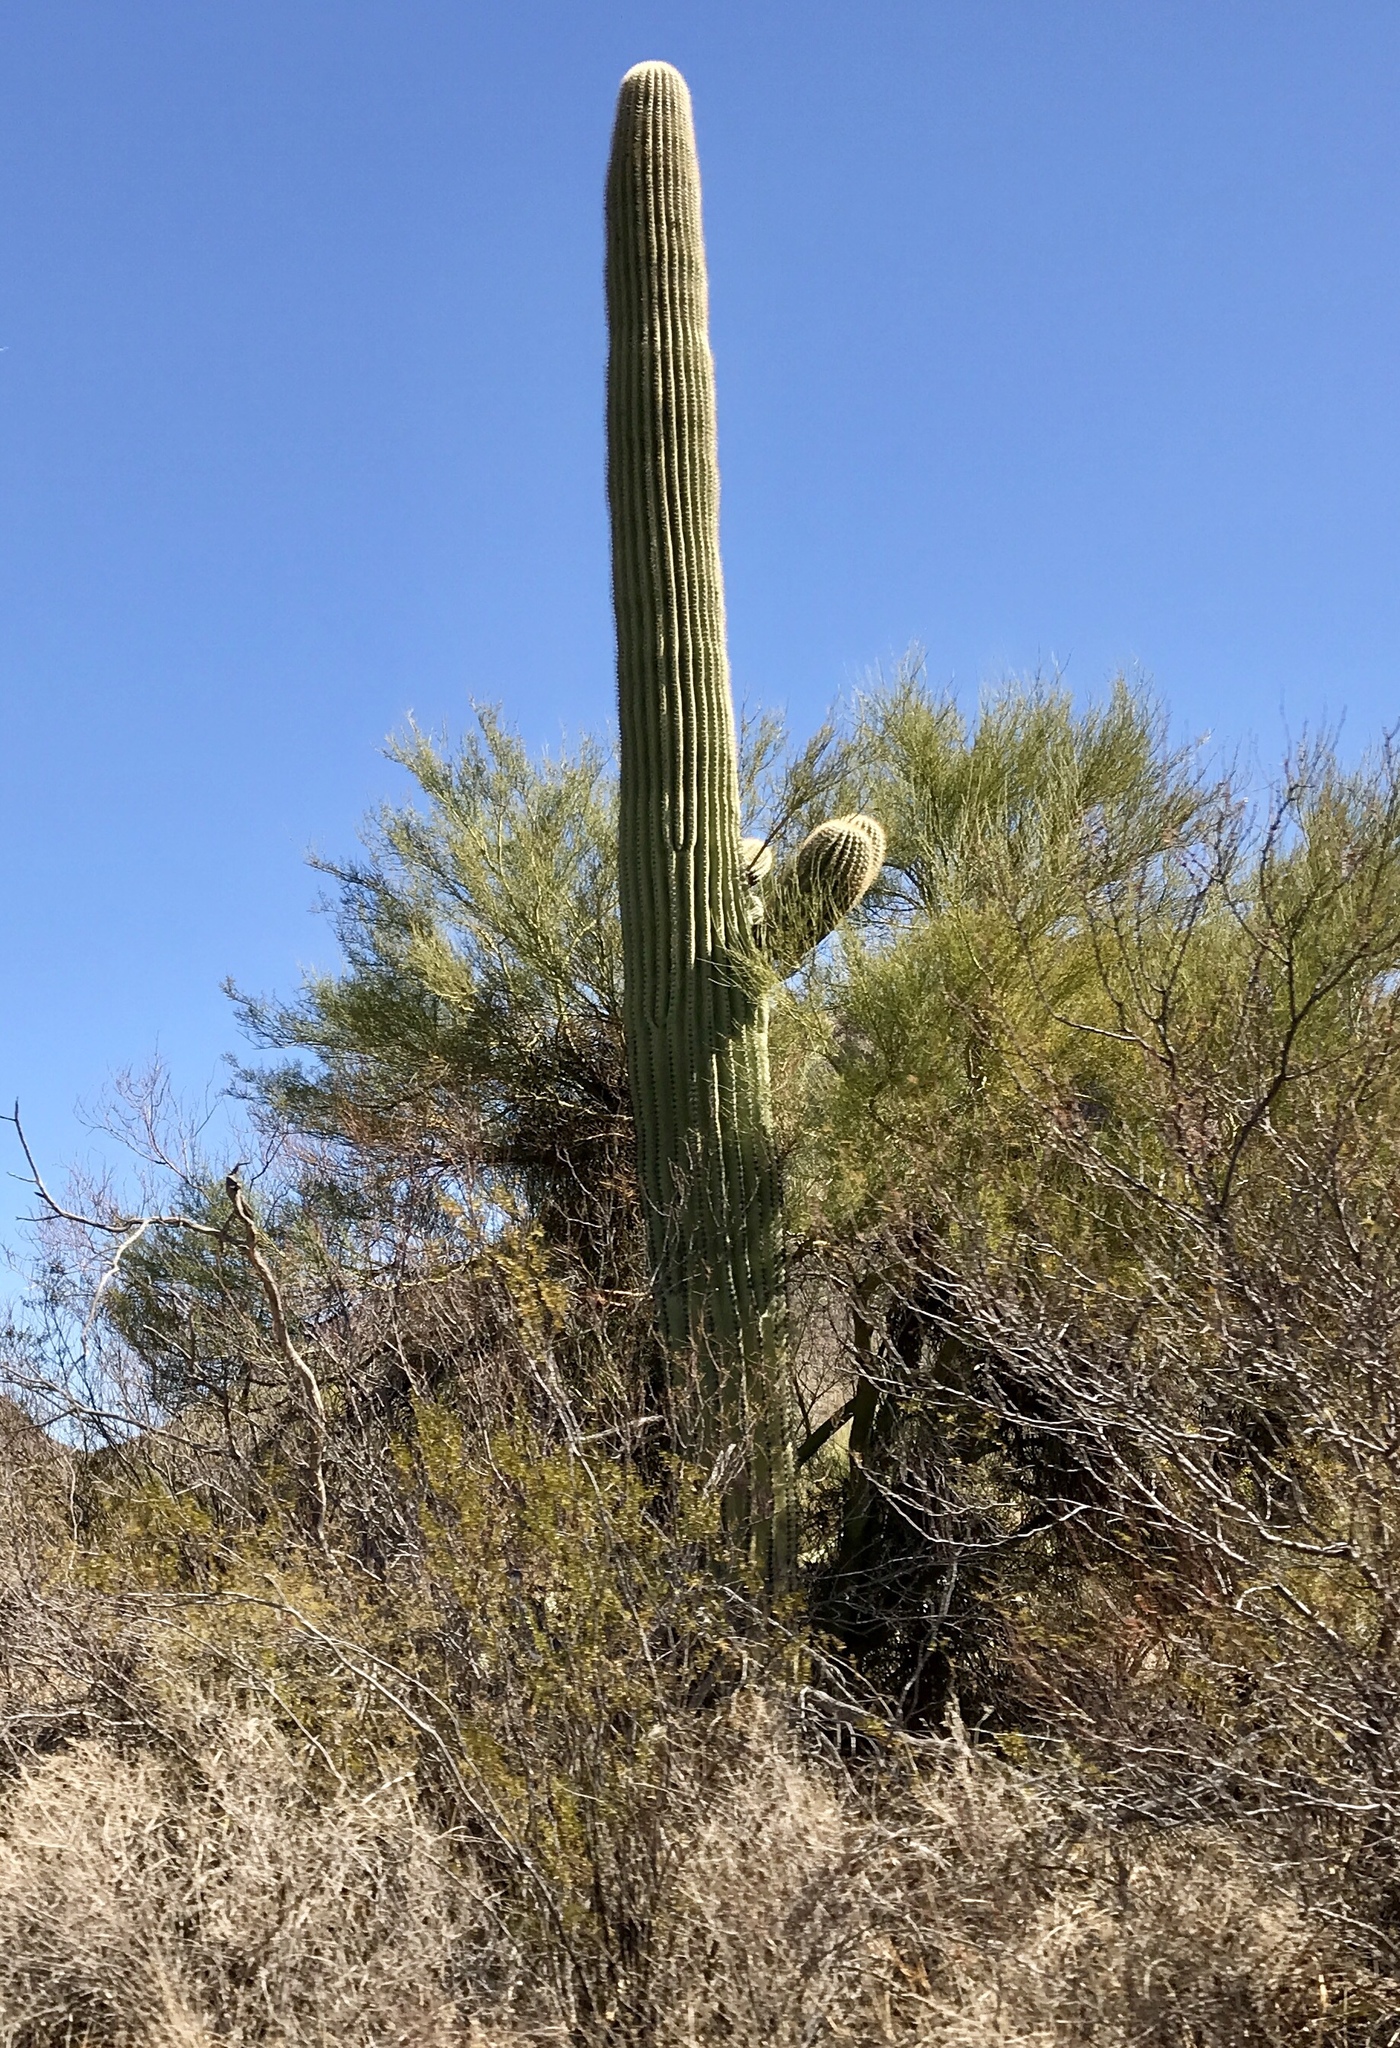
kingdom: Plantae
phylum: Tracheophyta
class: Magnoliopsida
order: Zygophyllales
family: Zygophyllaceae
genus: Larrea
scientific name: Larrea tridentata
